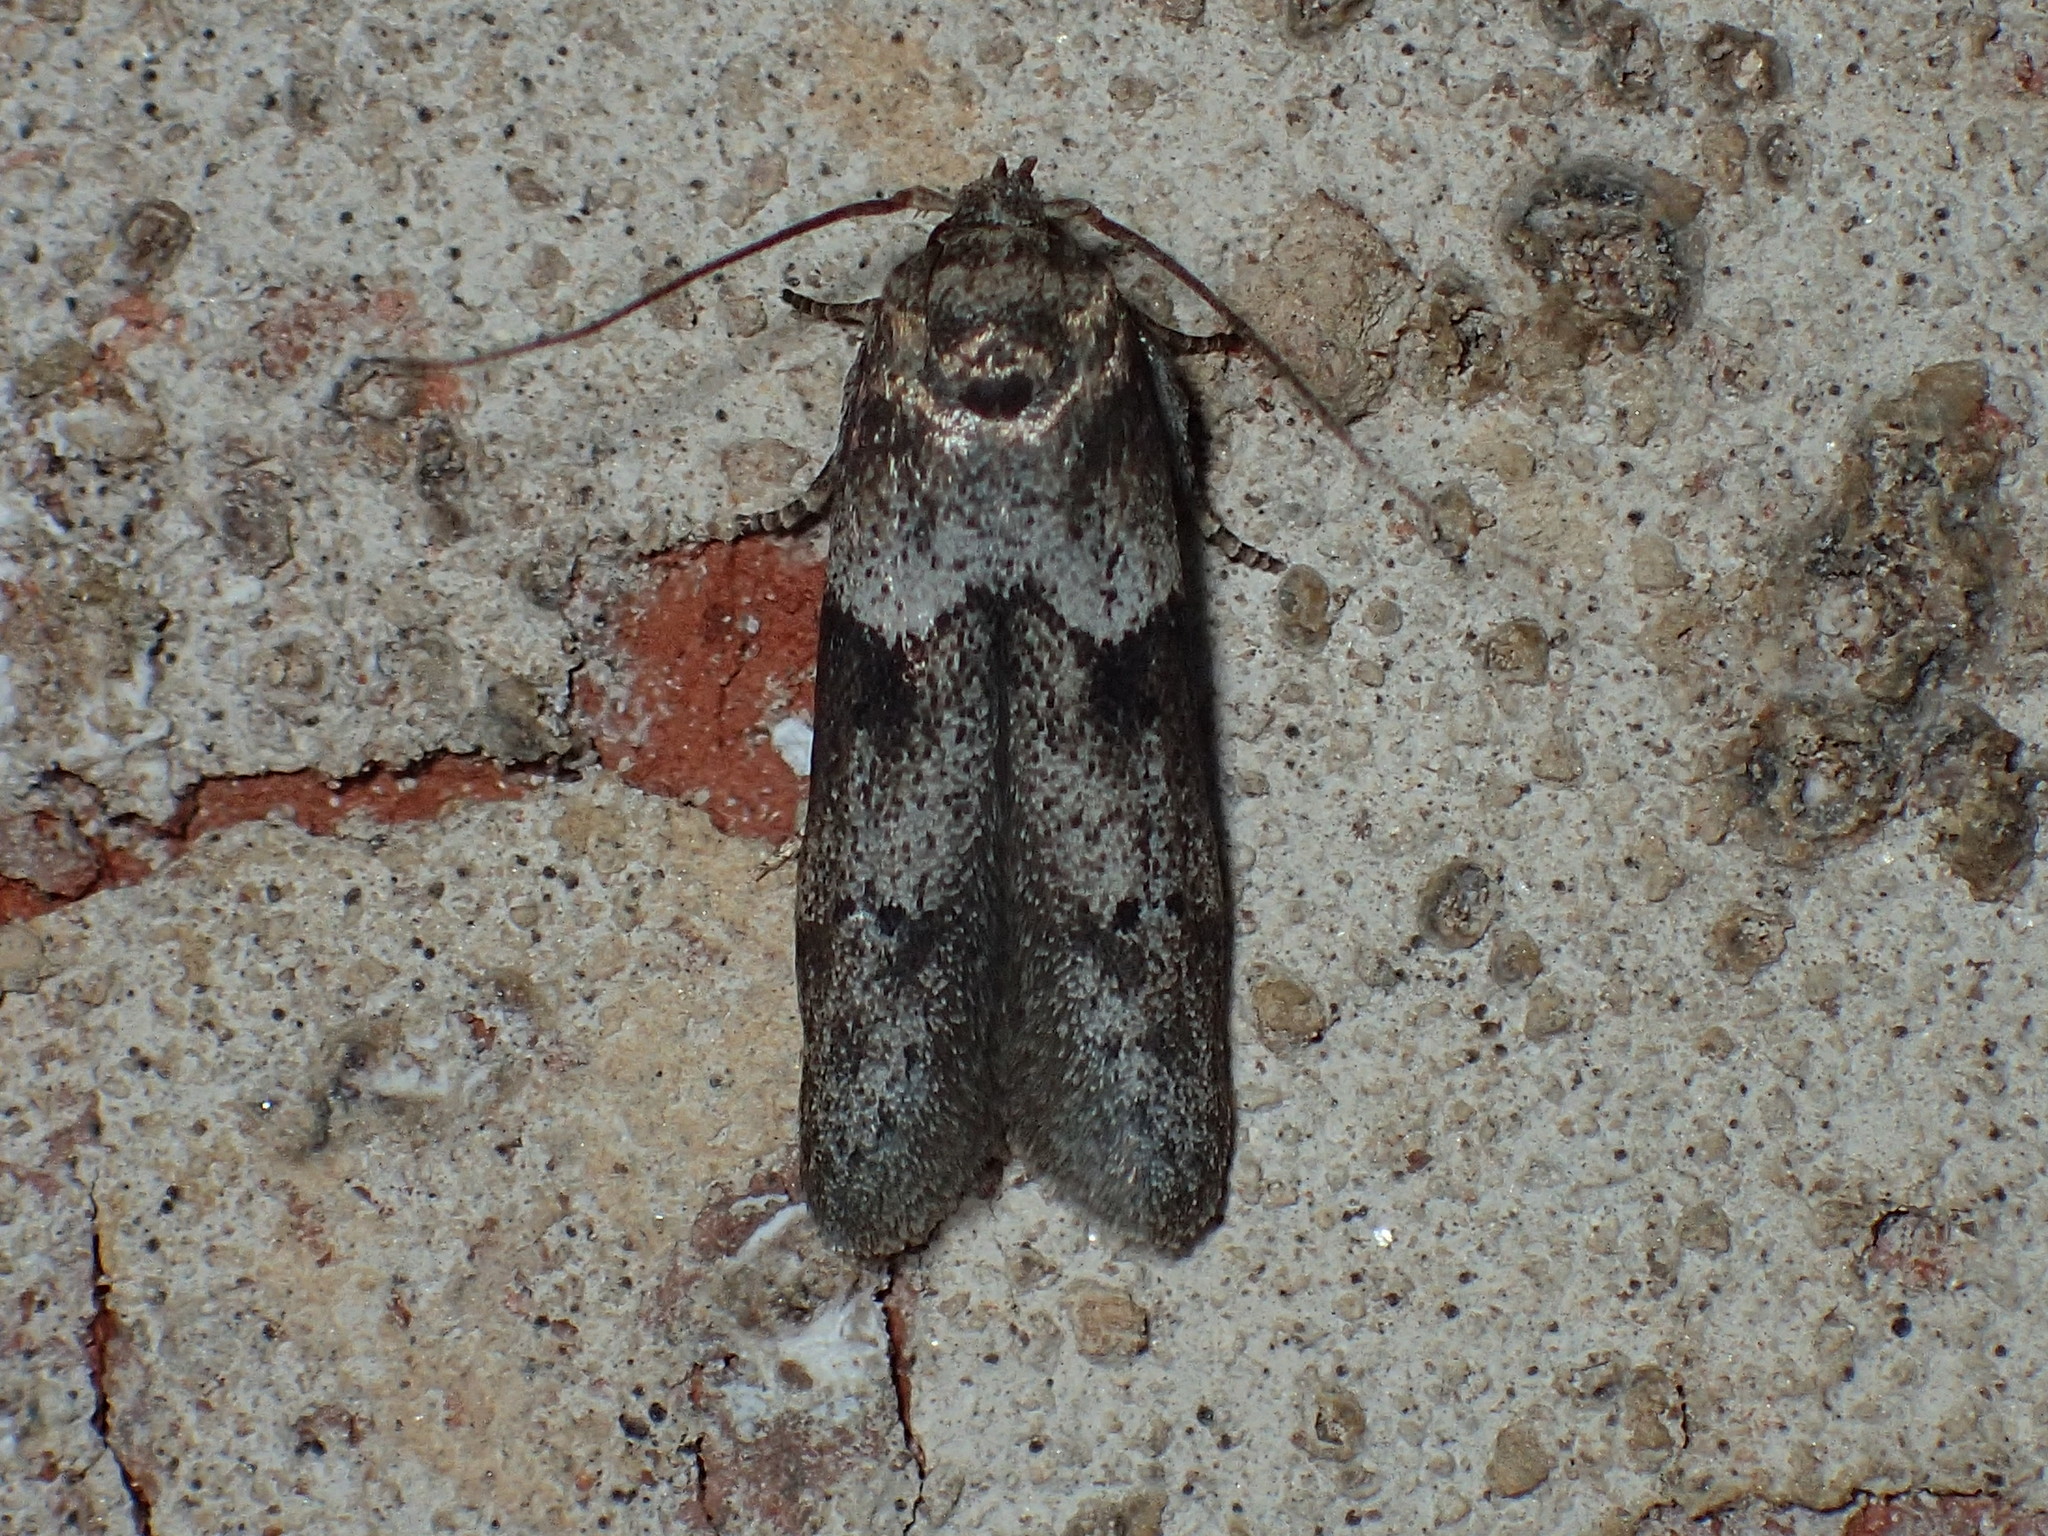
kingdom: Animalia
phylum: Arthropoda
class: Insecta
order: Lepidoptera
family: Blastobasidae
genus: Blastobasis
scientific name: Blastobasis glandulella
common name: Acorn moth
